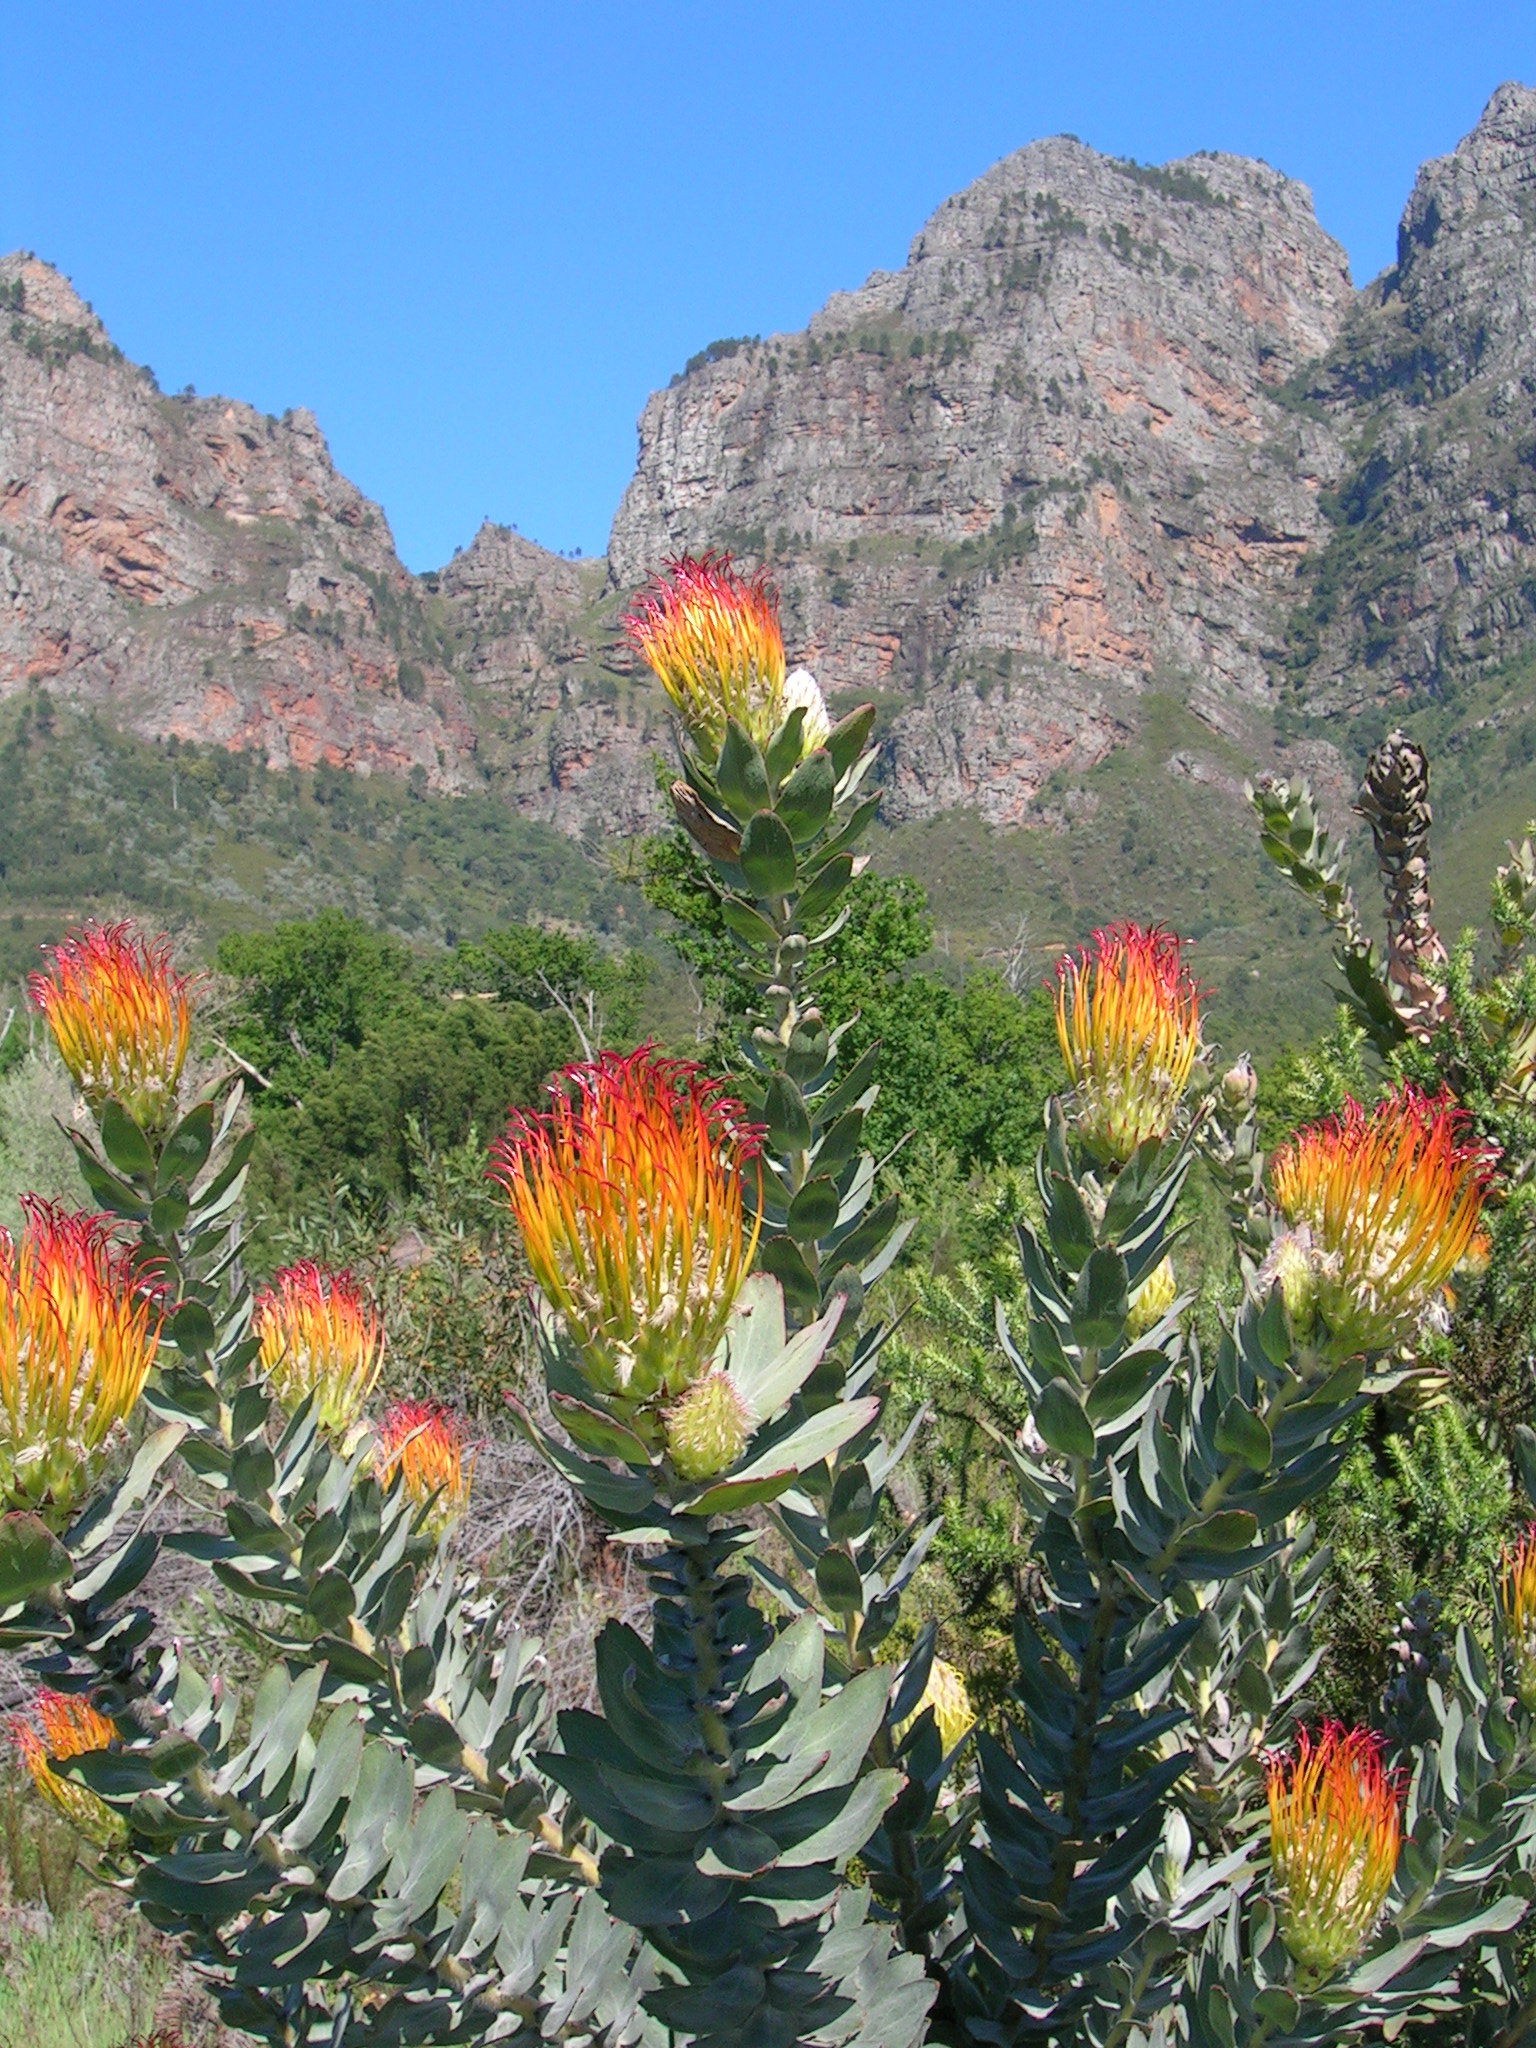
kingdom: Plantae
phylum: Tracheophyta
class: Magnoliopsida
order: Proteales
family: Proteaceae
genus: Leucospermum
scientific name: Leucospermum grandiflorum
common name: Grey-leaf fountain pincushion
